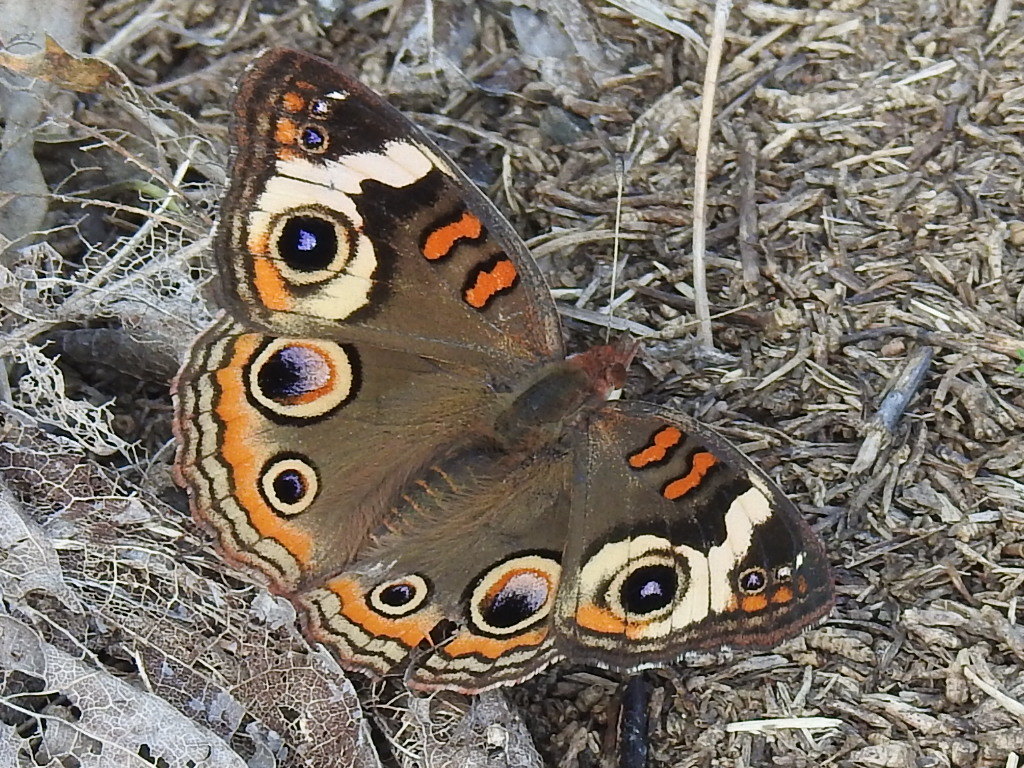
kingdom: Animalia
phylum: Arthropoda
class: Insecta
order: Lepidoptera
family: Nymphalidae
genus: Junonia
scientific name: Junonia coenia
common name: Common buckeye
